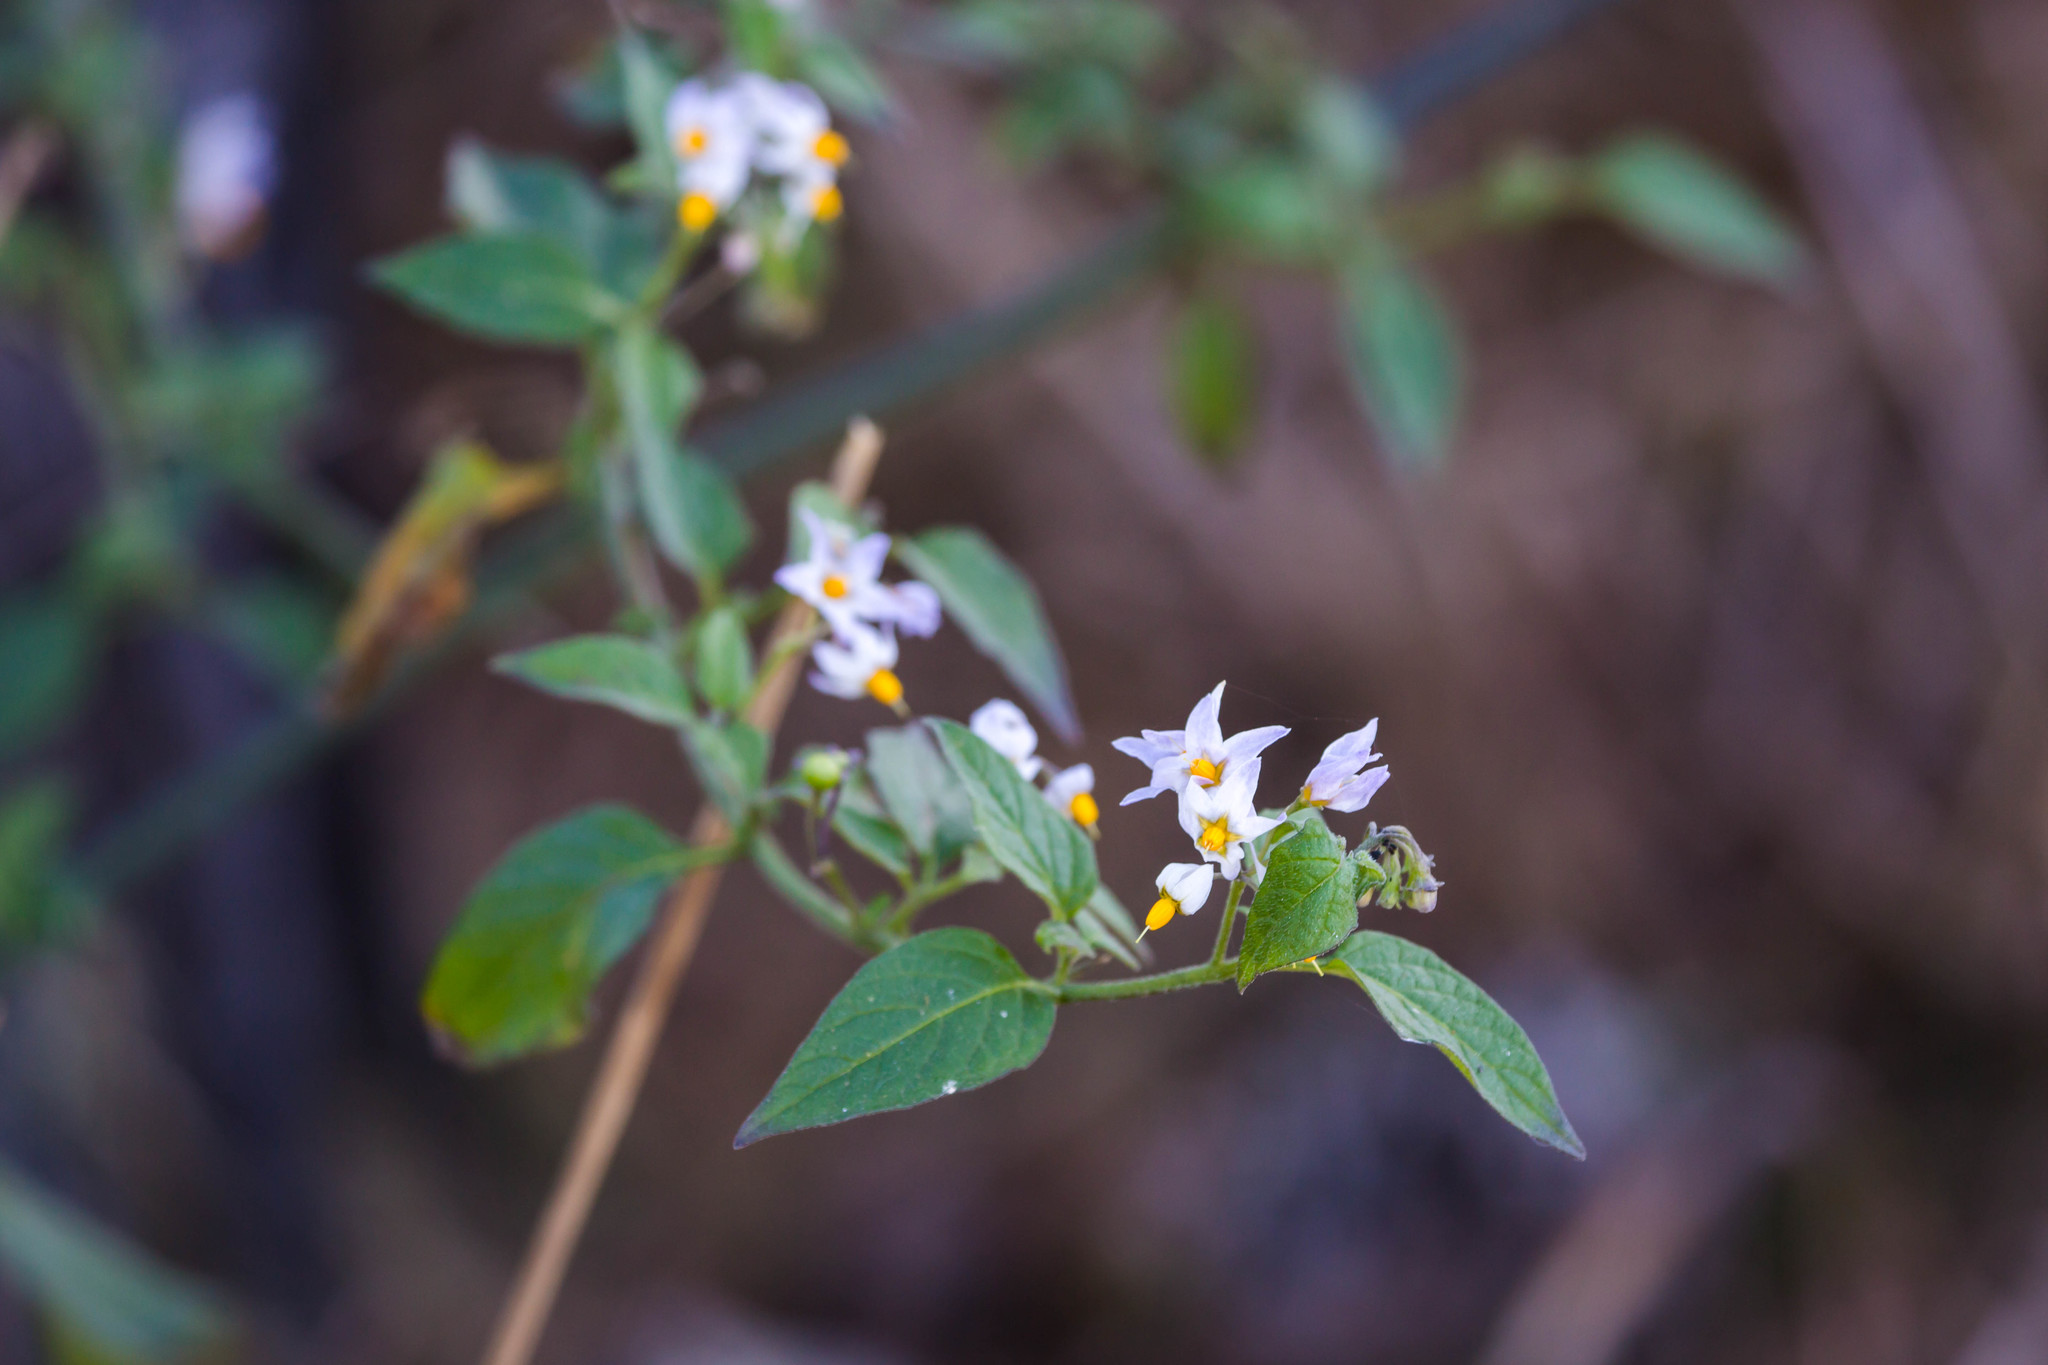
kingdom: Plantae
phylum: Tracheophyta
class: Magnoliopsida
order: Solanales
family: Solanaceae
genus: Solanum
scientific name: Solanum douglasii
